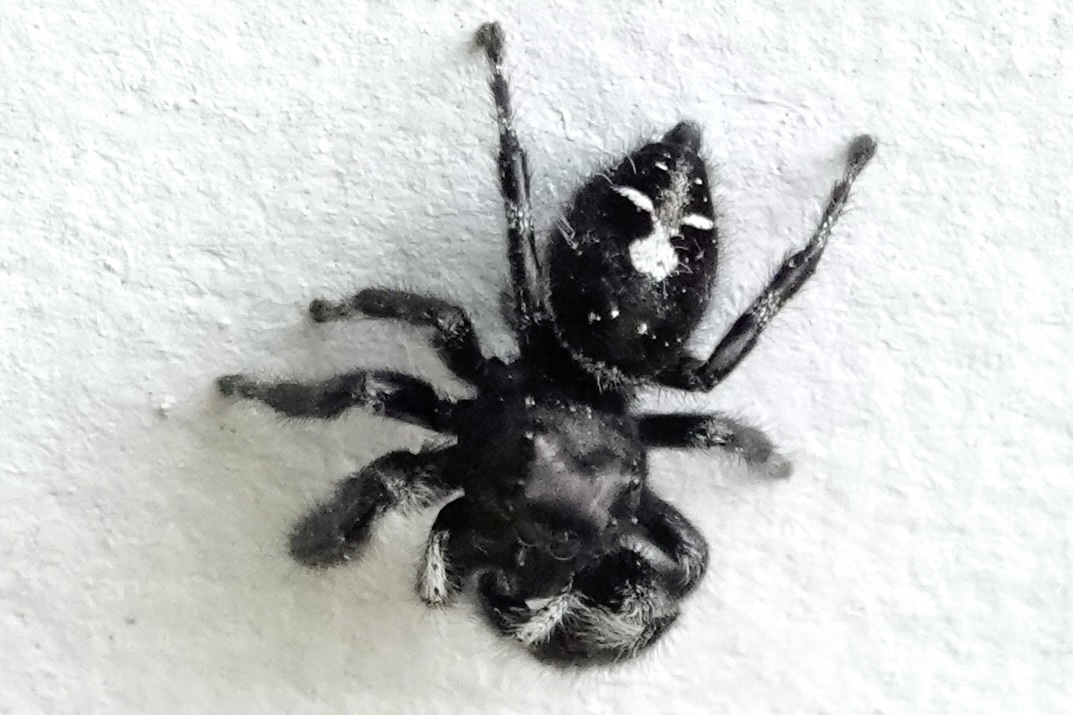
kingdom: Animalia
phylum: Arthropoda
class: Arachnida
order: Araneae
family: Salticidae
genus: Phidippus
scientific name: Phidippus audax
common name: Bold jumper
